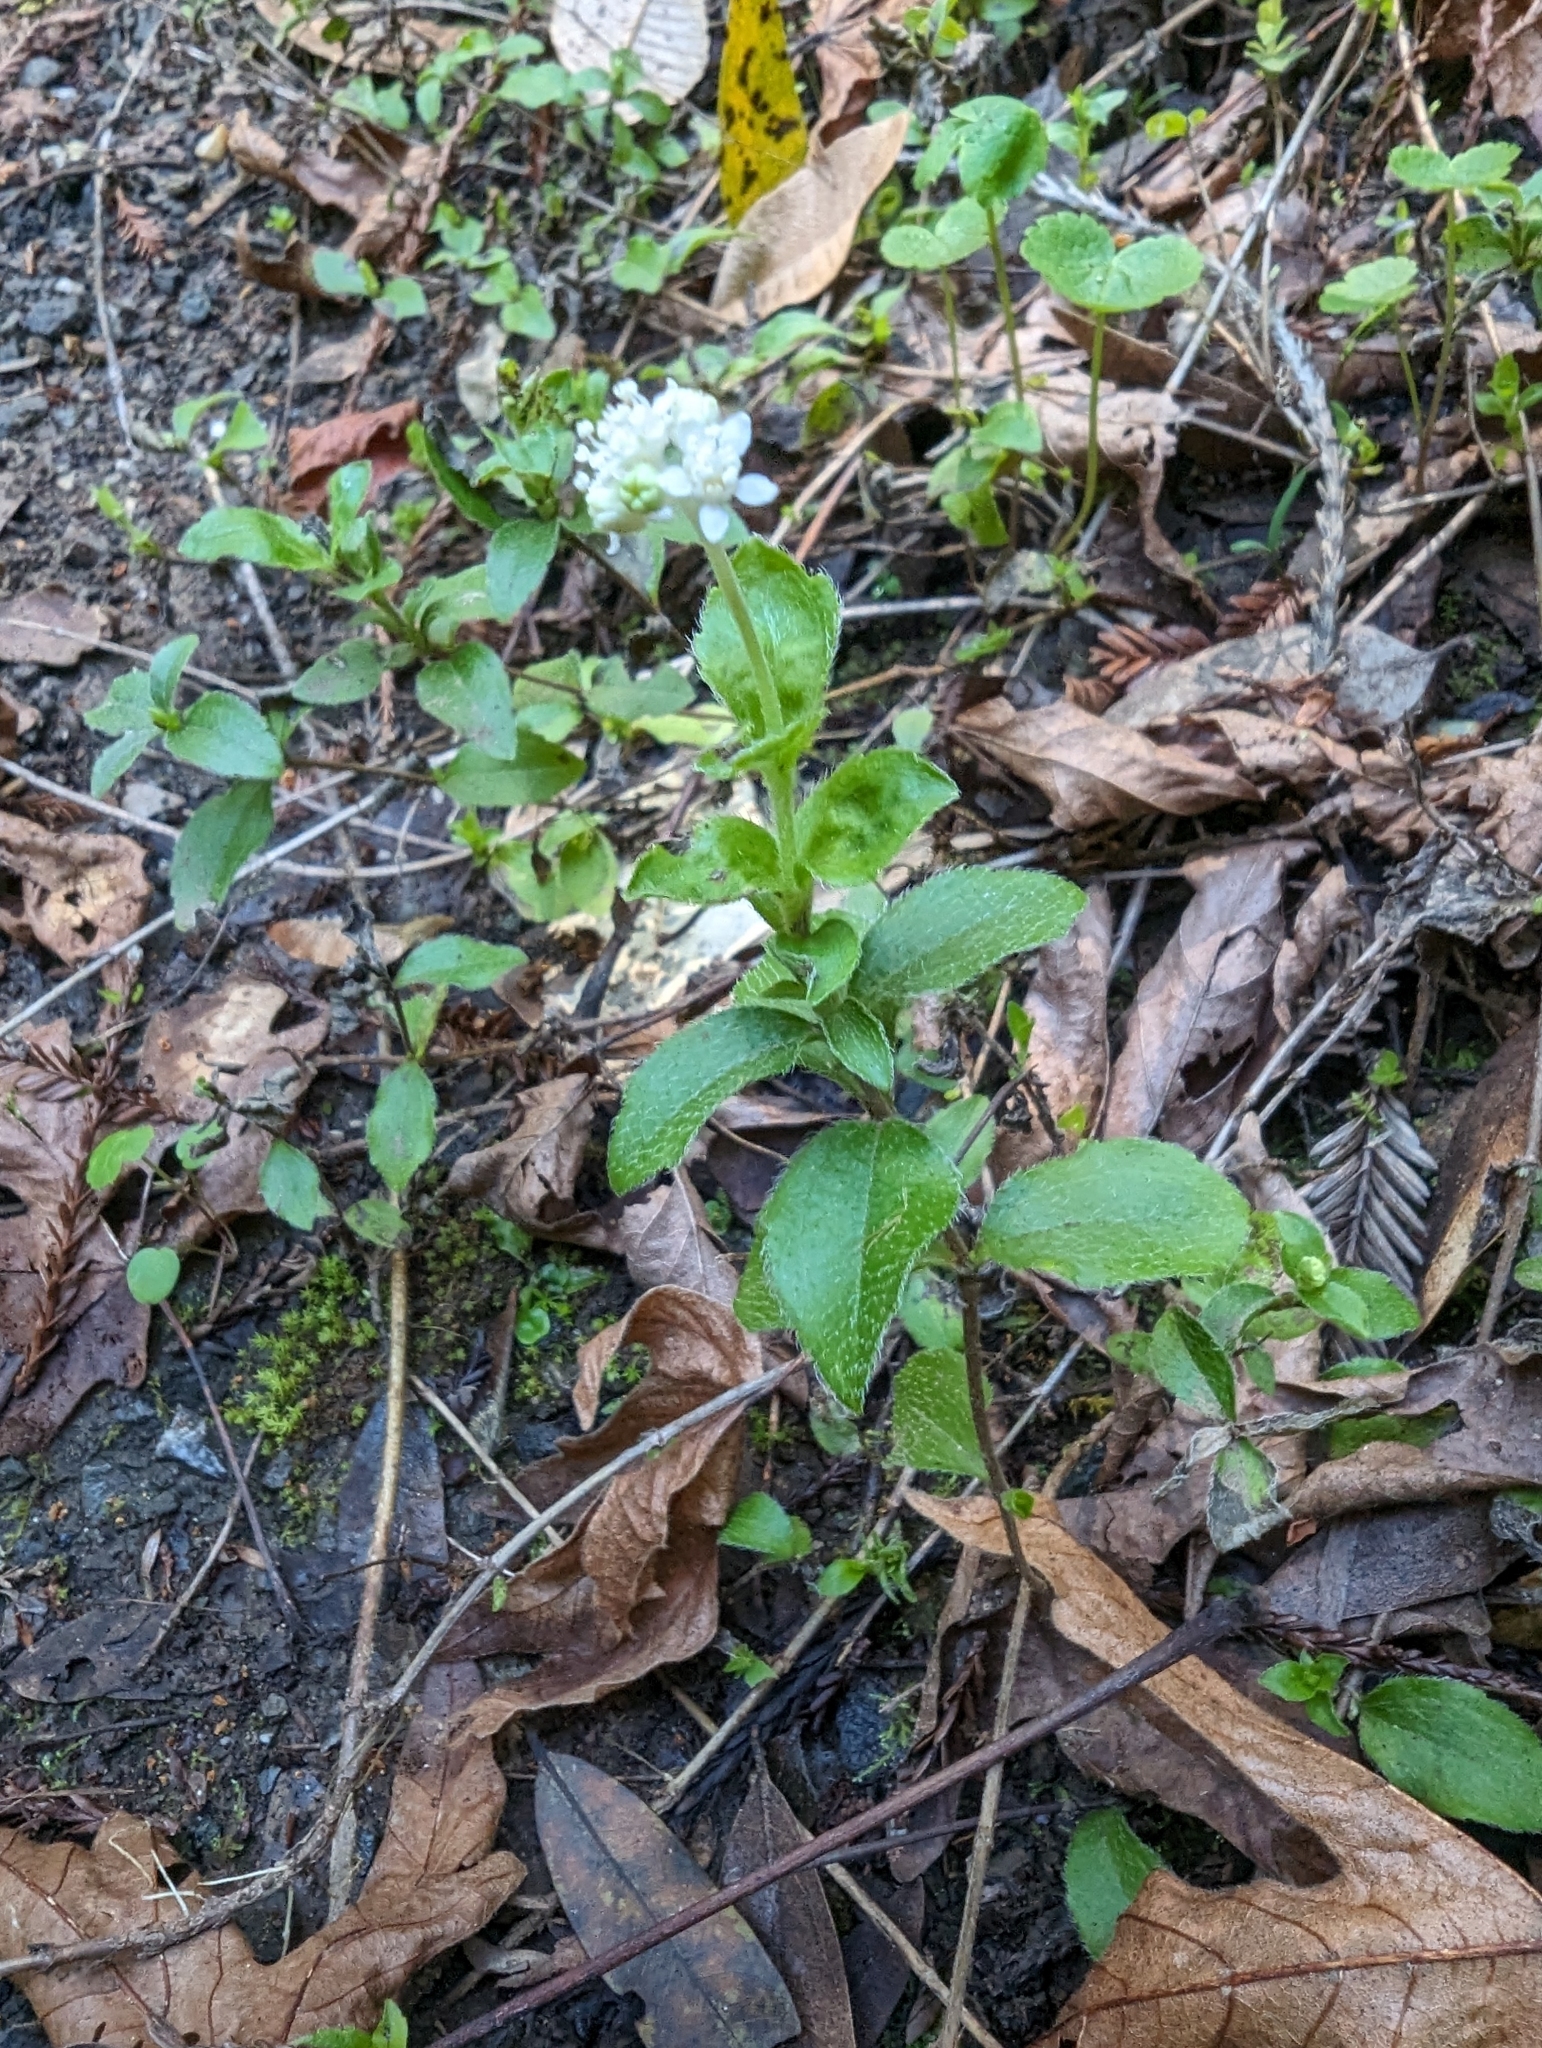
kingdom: Plantae
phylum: Tracheophyta
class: Magnoliopsida
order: Cornales
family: Hydrangeaceae
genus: Whipplea
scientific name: Whipplea modesta
